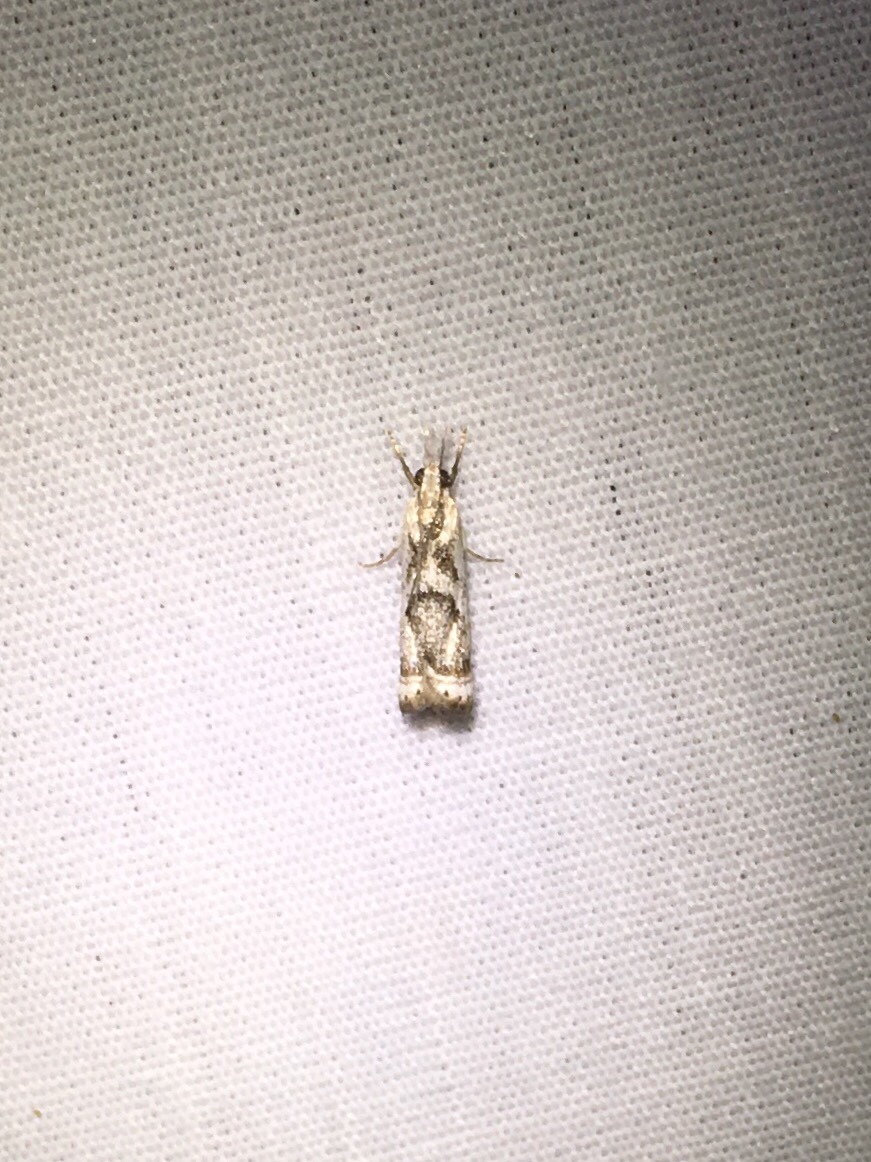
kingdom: Animalia
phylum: Arthropoda
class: Insecta
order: Lepidoptera
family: Crambidae
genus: Microcrambus
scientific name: Microcrambus elegans
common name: Elegant grass-veneer
